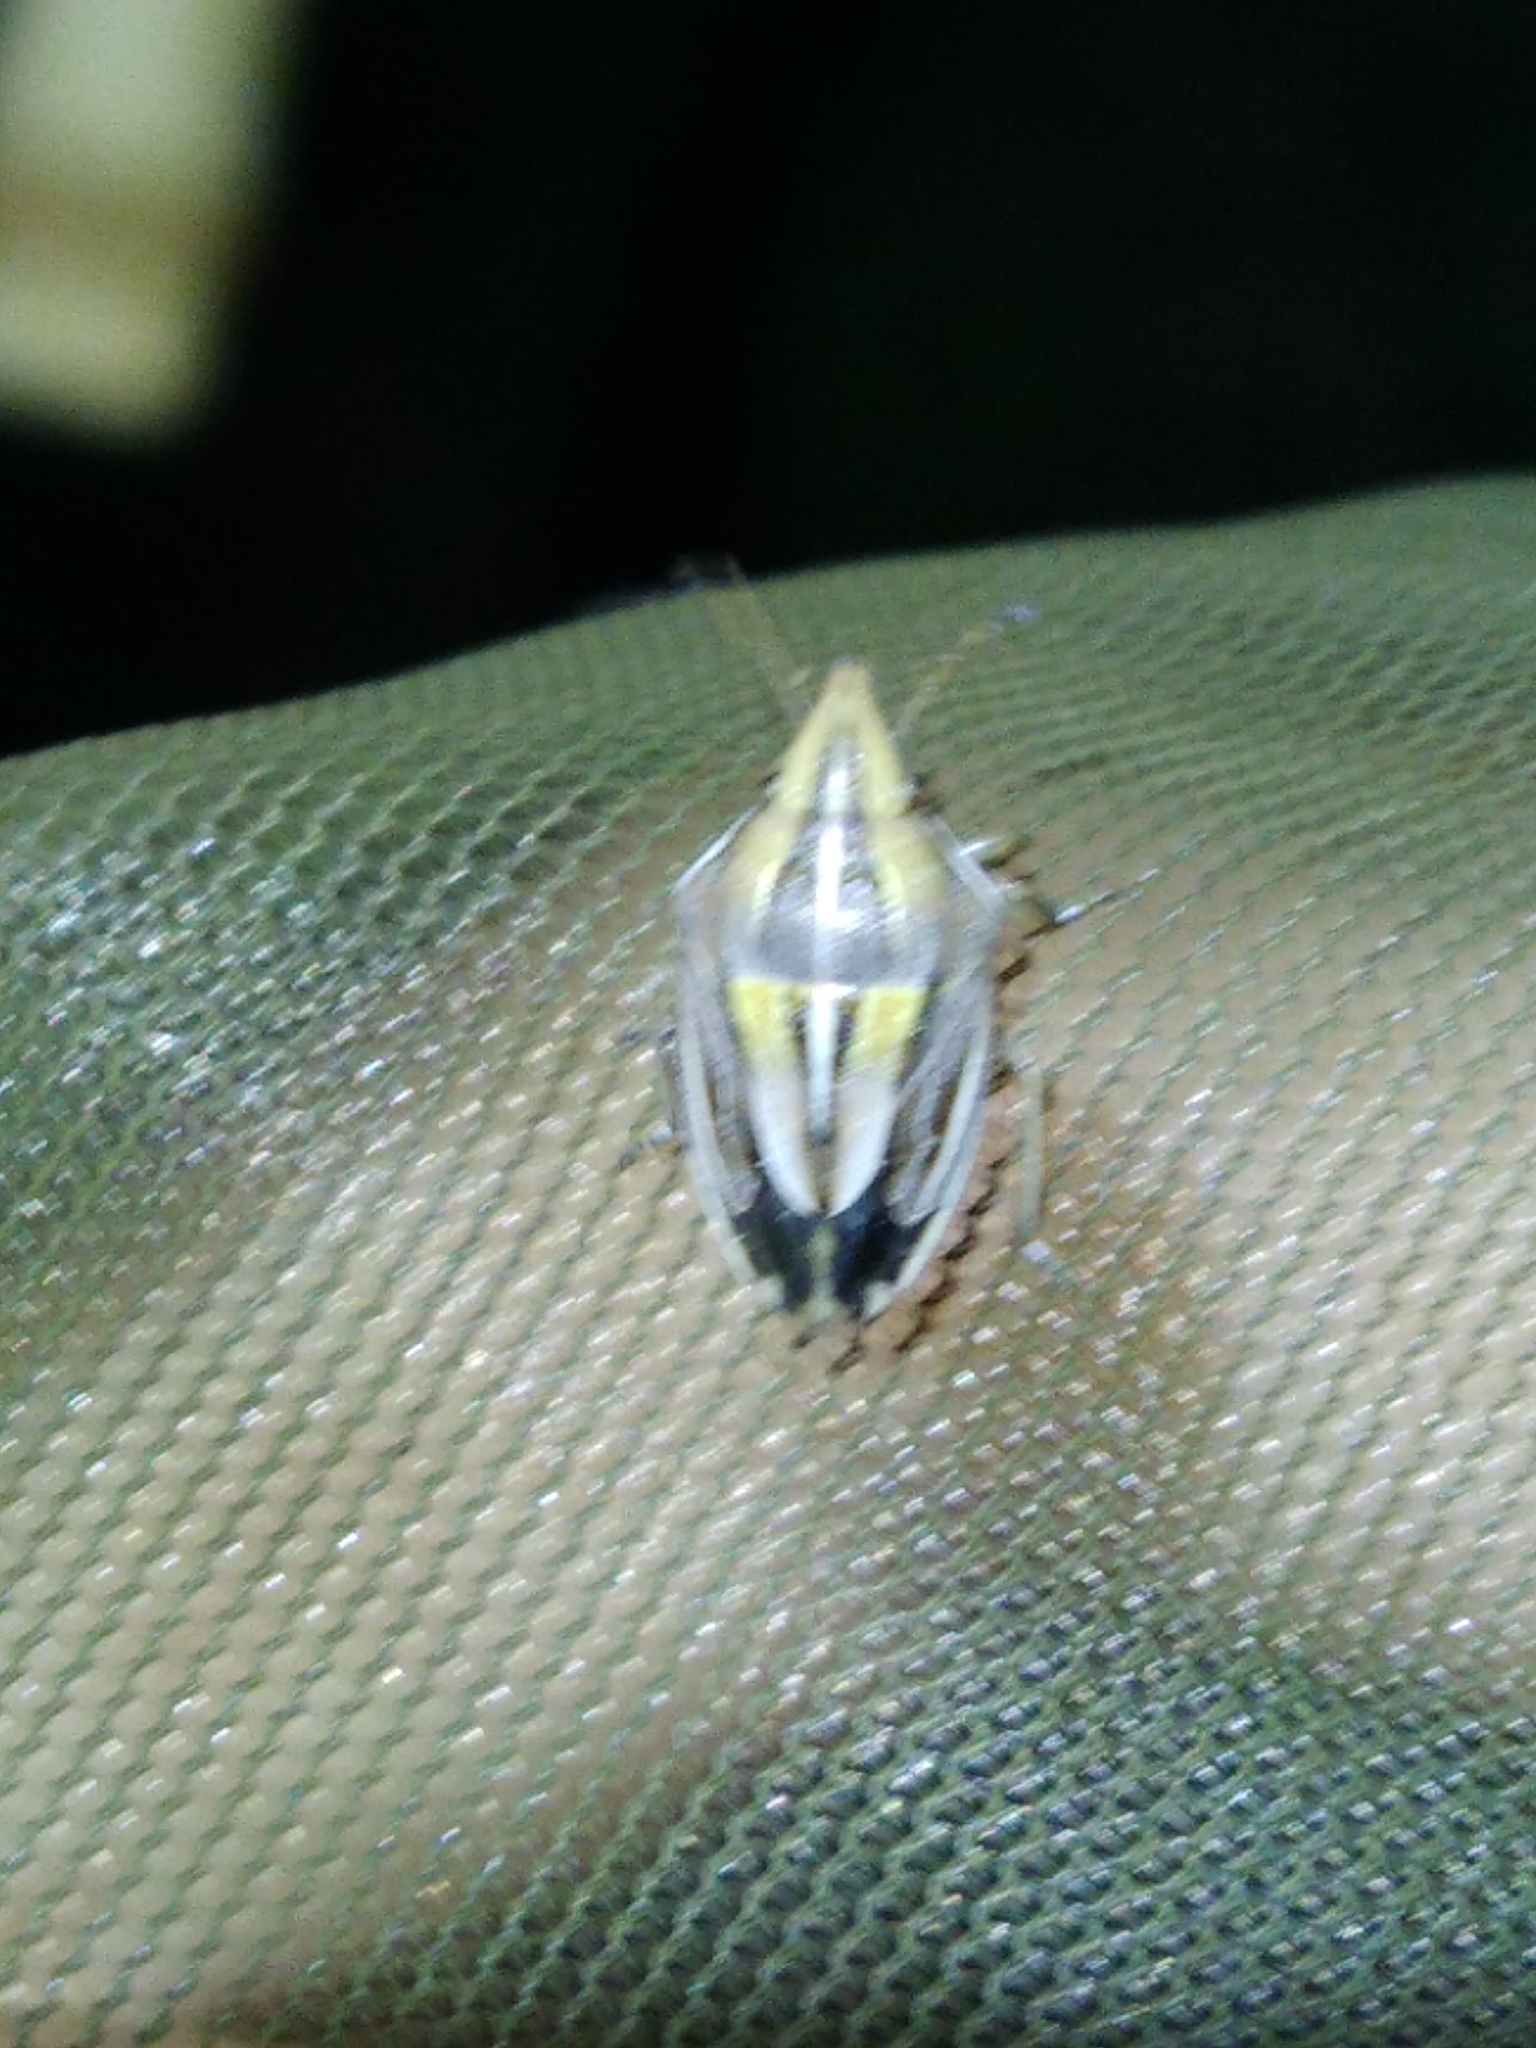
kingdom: Animalia
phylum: Arthropoda
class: Insecta
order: Hemiptera
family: Pentatomidae
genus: Aelia
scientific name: Aelia rostrata
